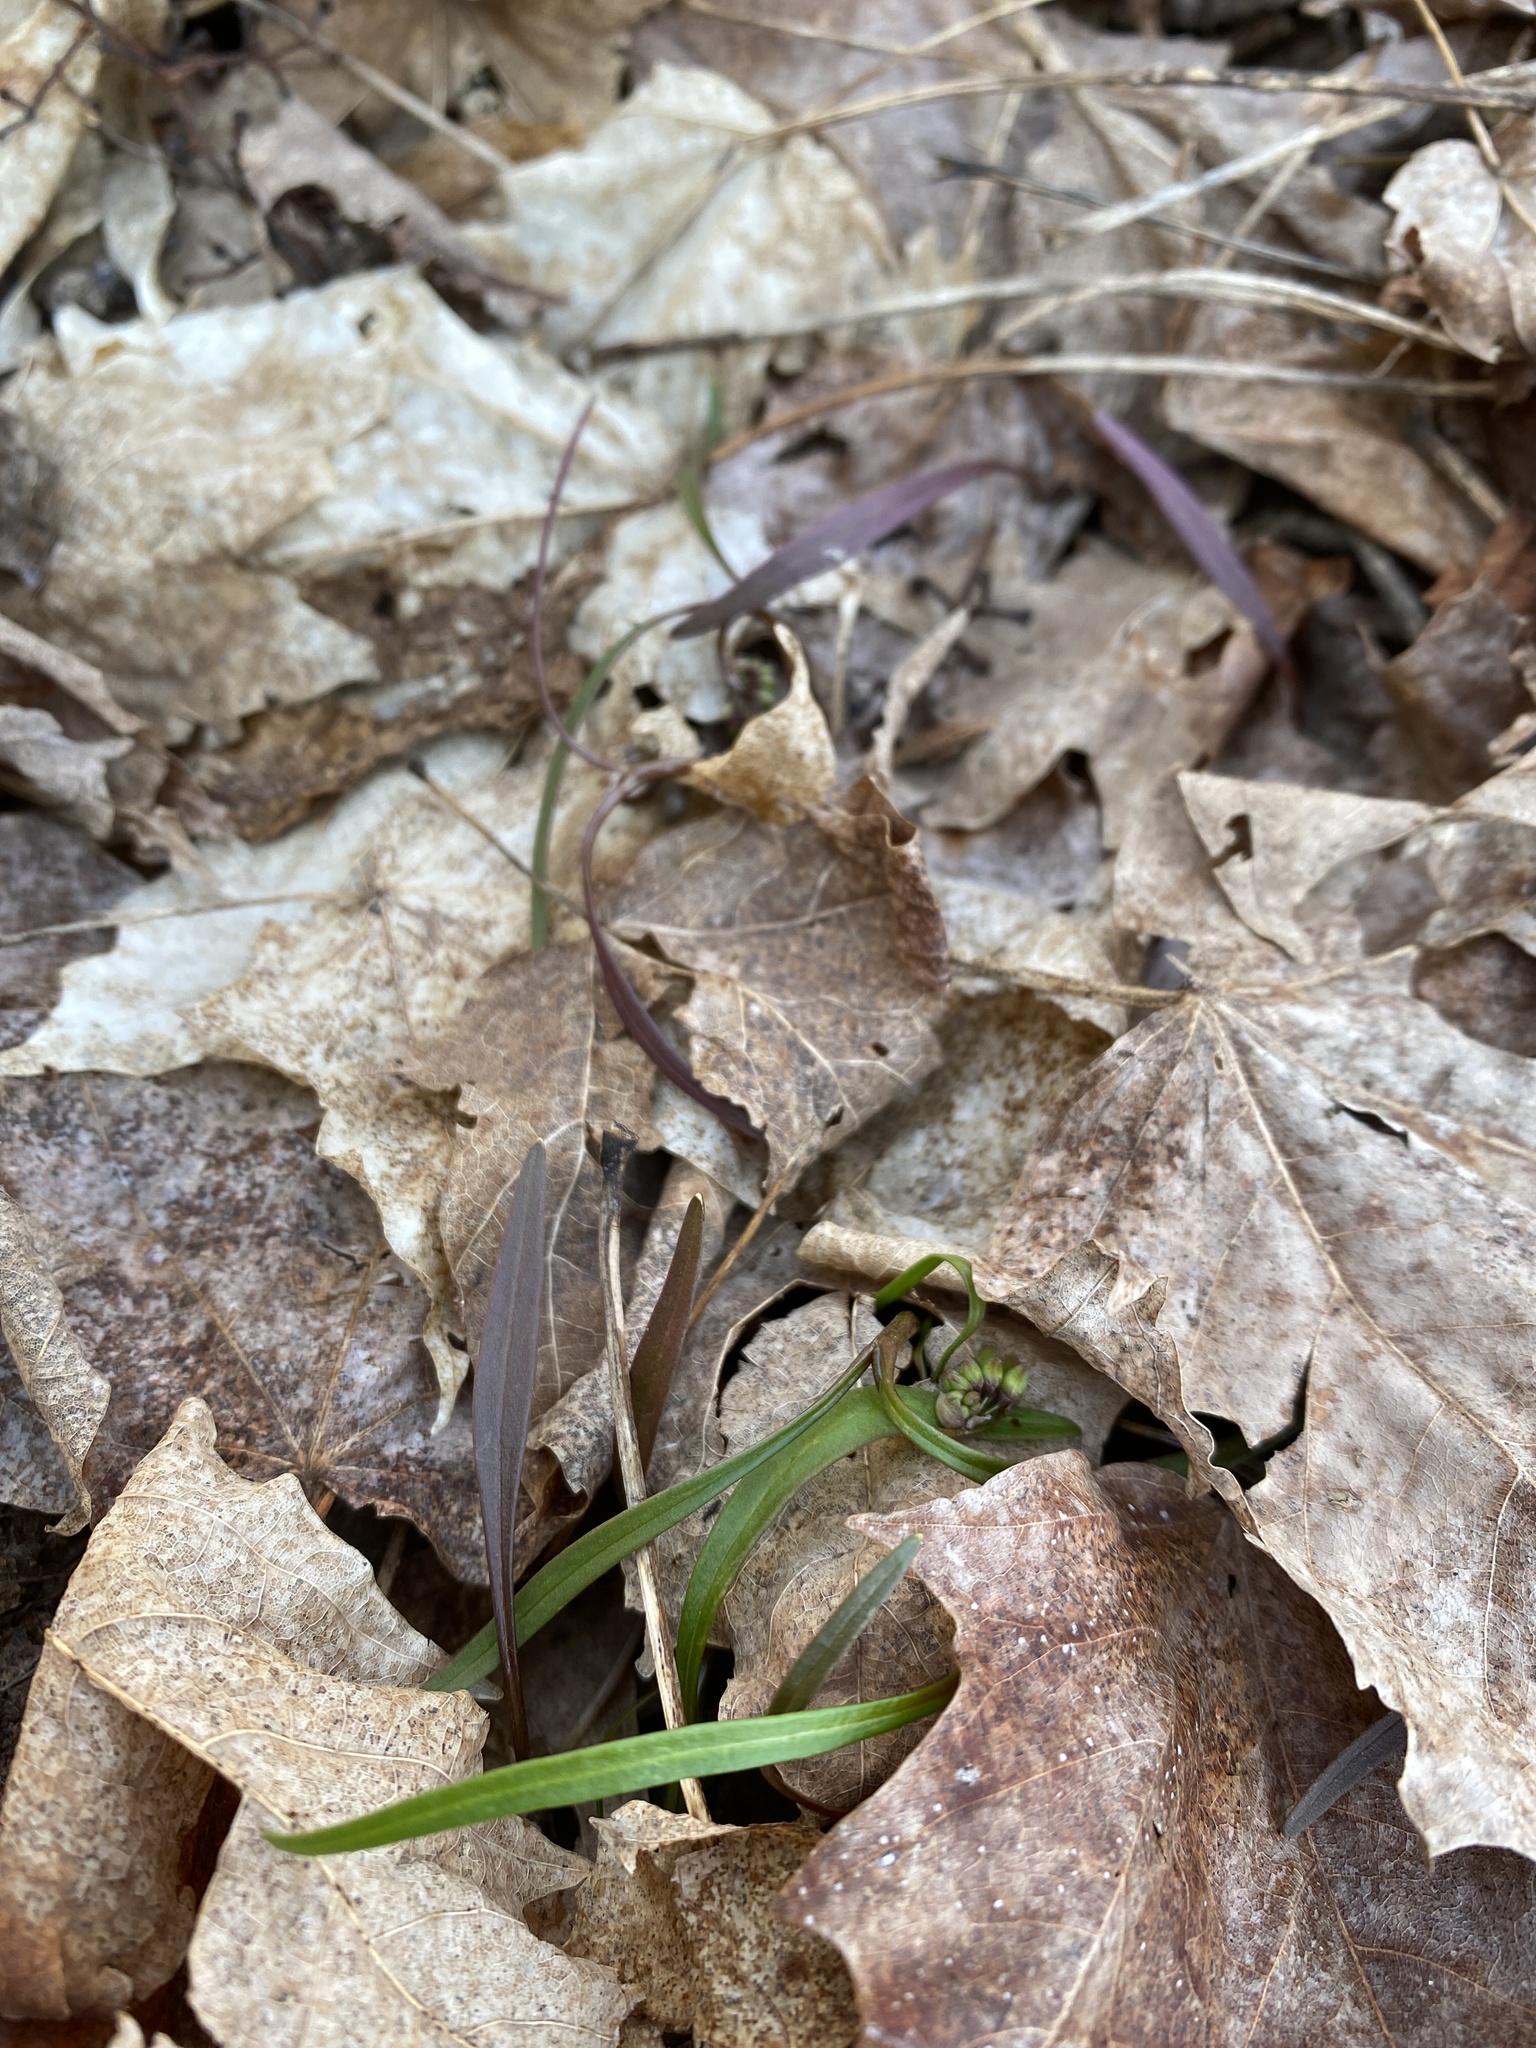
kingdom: Plantae
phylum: Tracheophyta
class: Magnoliopsida
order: Caryophyllales
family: Montiaceae
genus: Claytonia
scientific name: Claytonia virginica
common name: Virginia springbeauty
